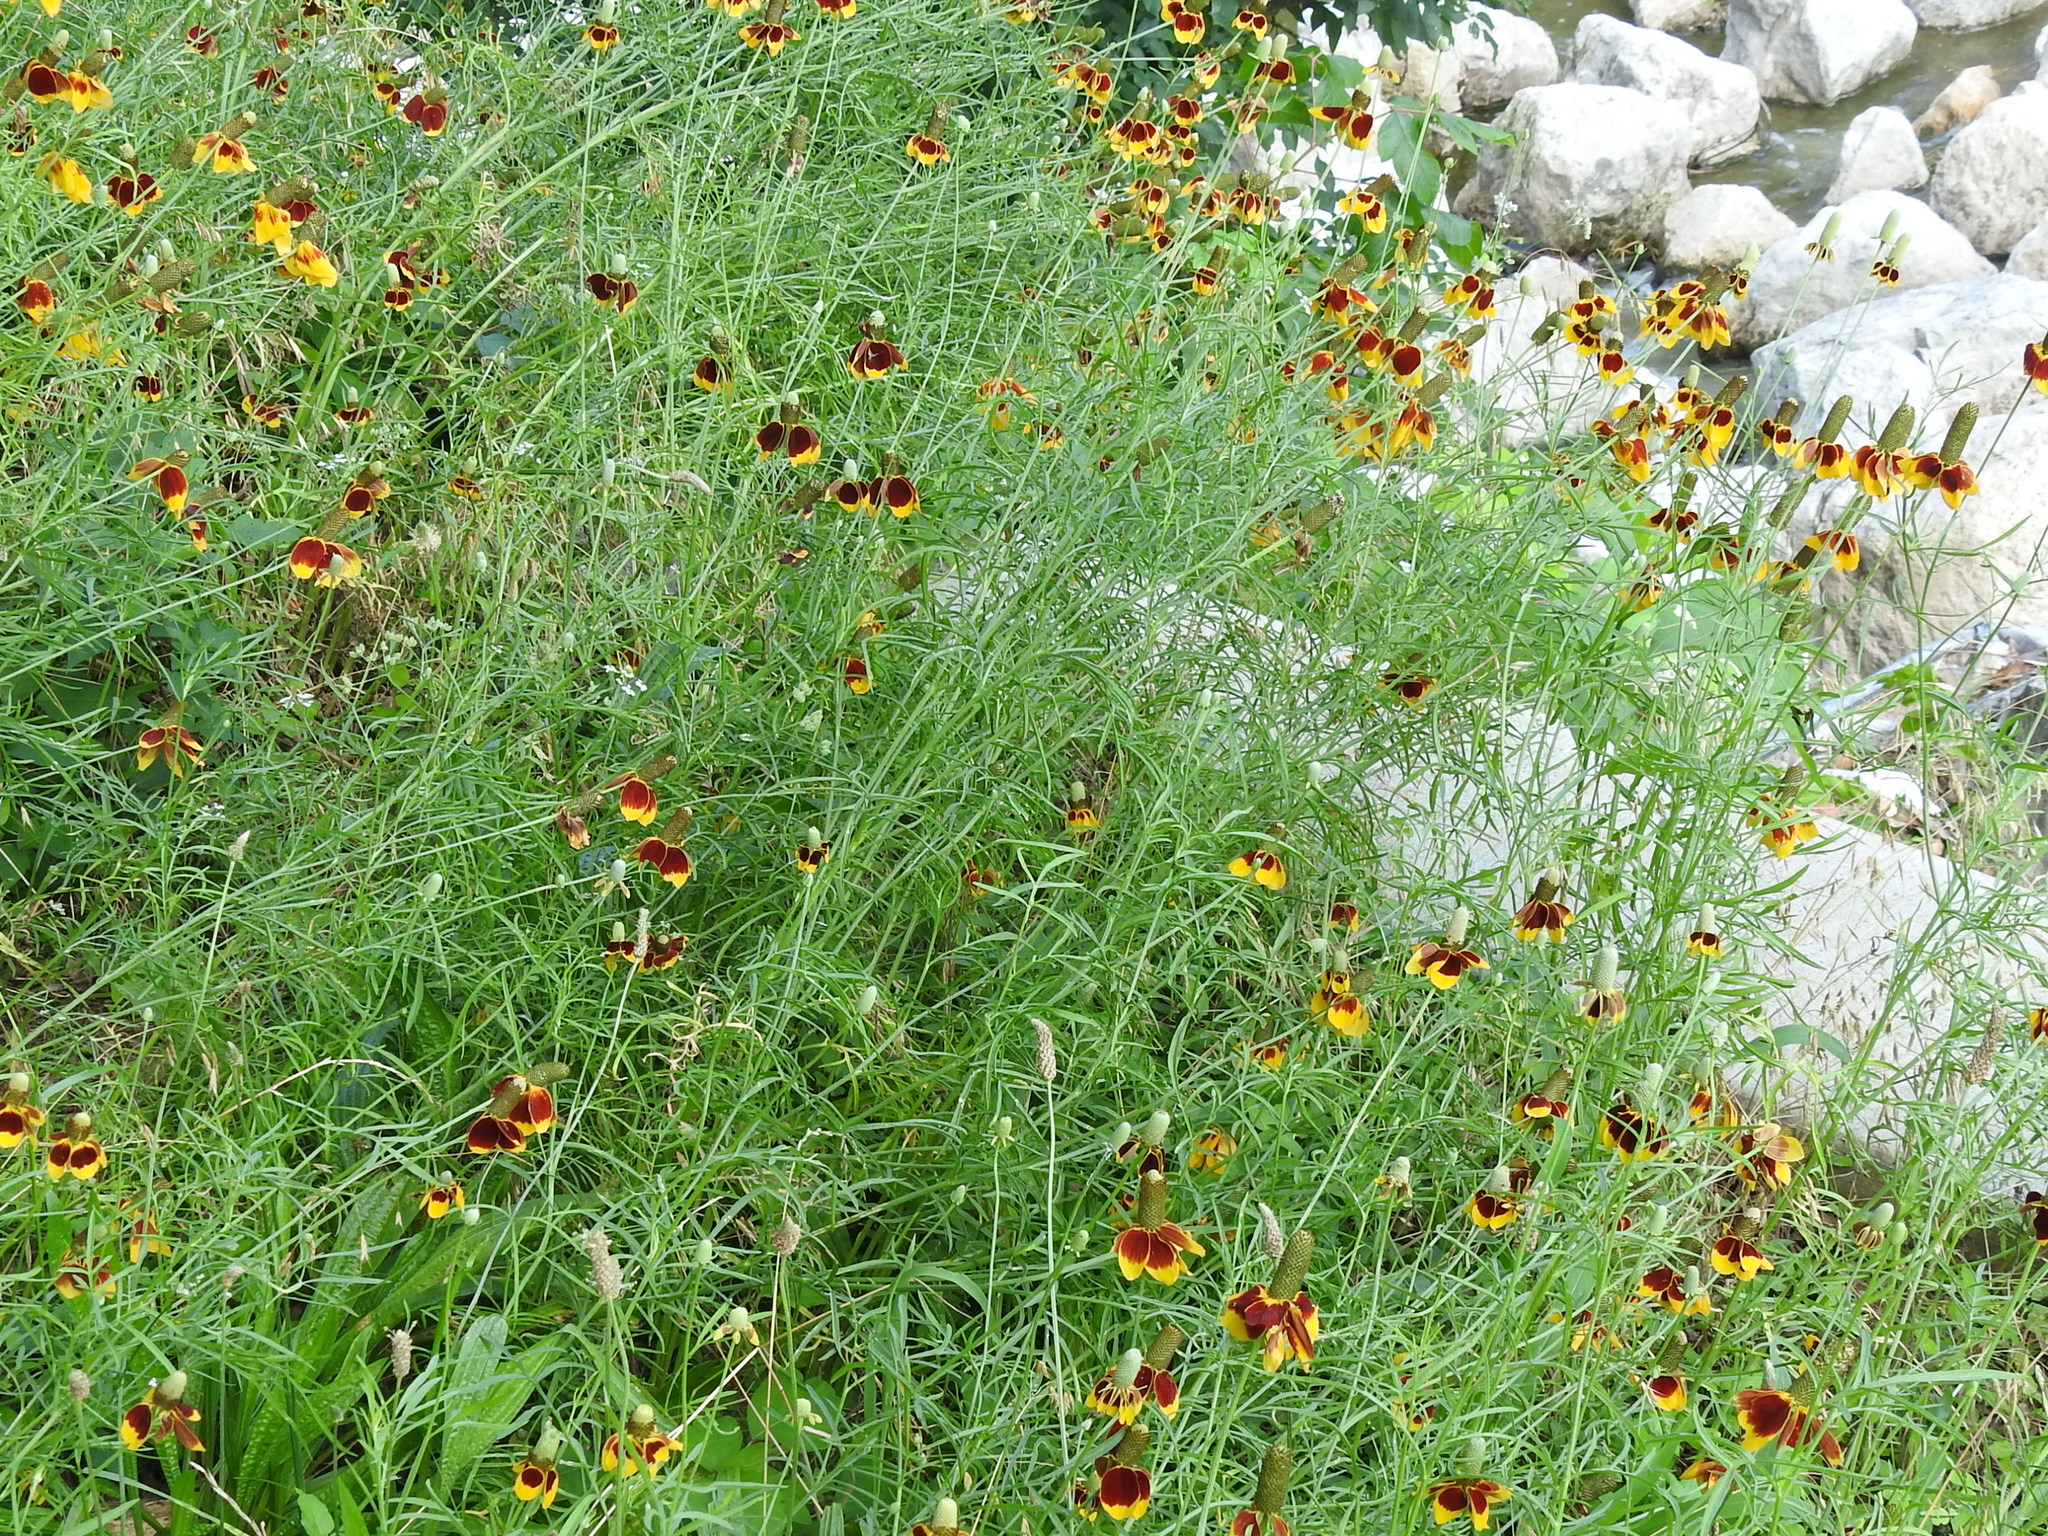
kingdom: Plantae
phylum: Tracheophyta
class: Magnoliopsida
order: Asterales
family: Asteraceae
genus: Ratibida
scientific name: Ratibida columnifera
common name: Prairie coneflower
